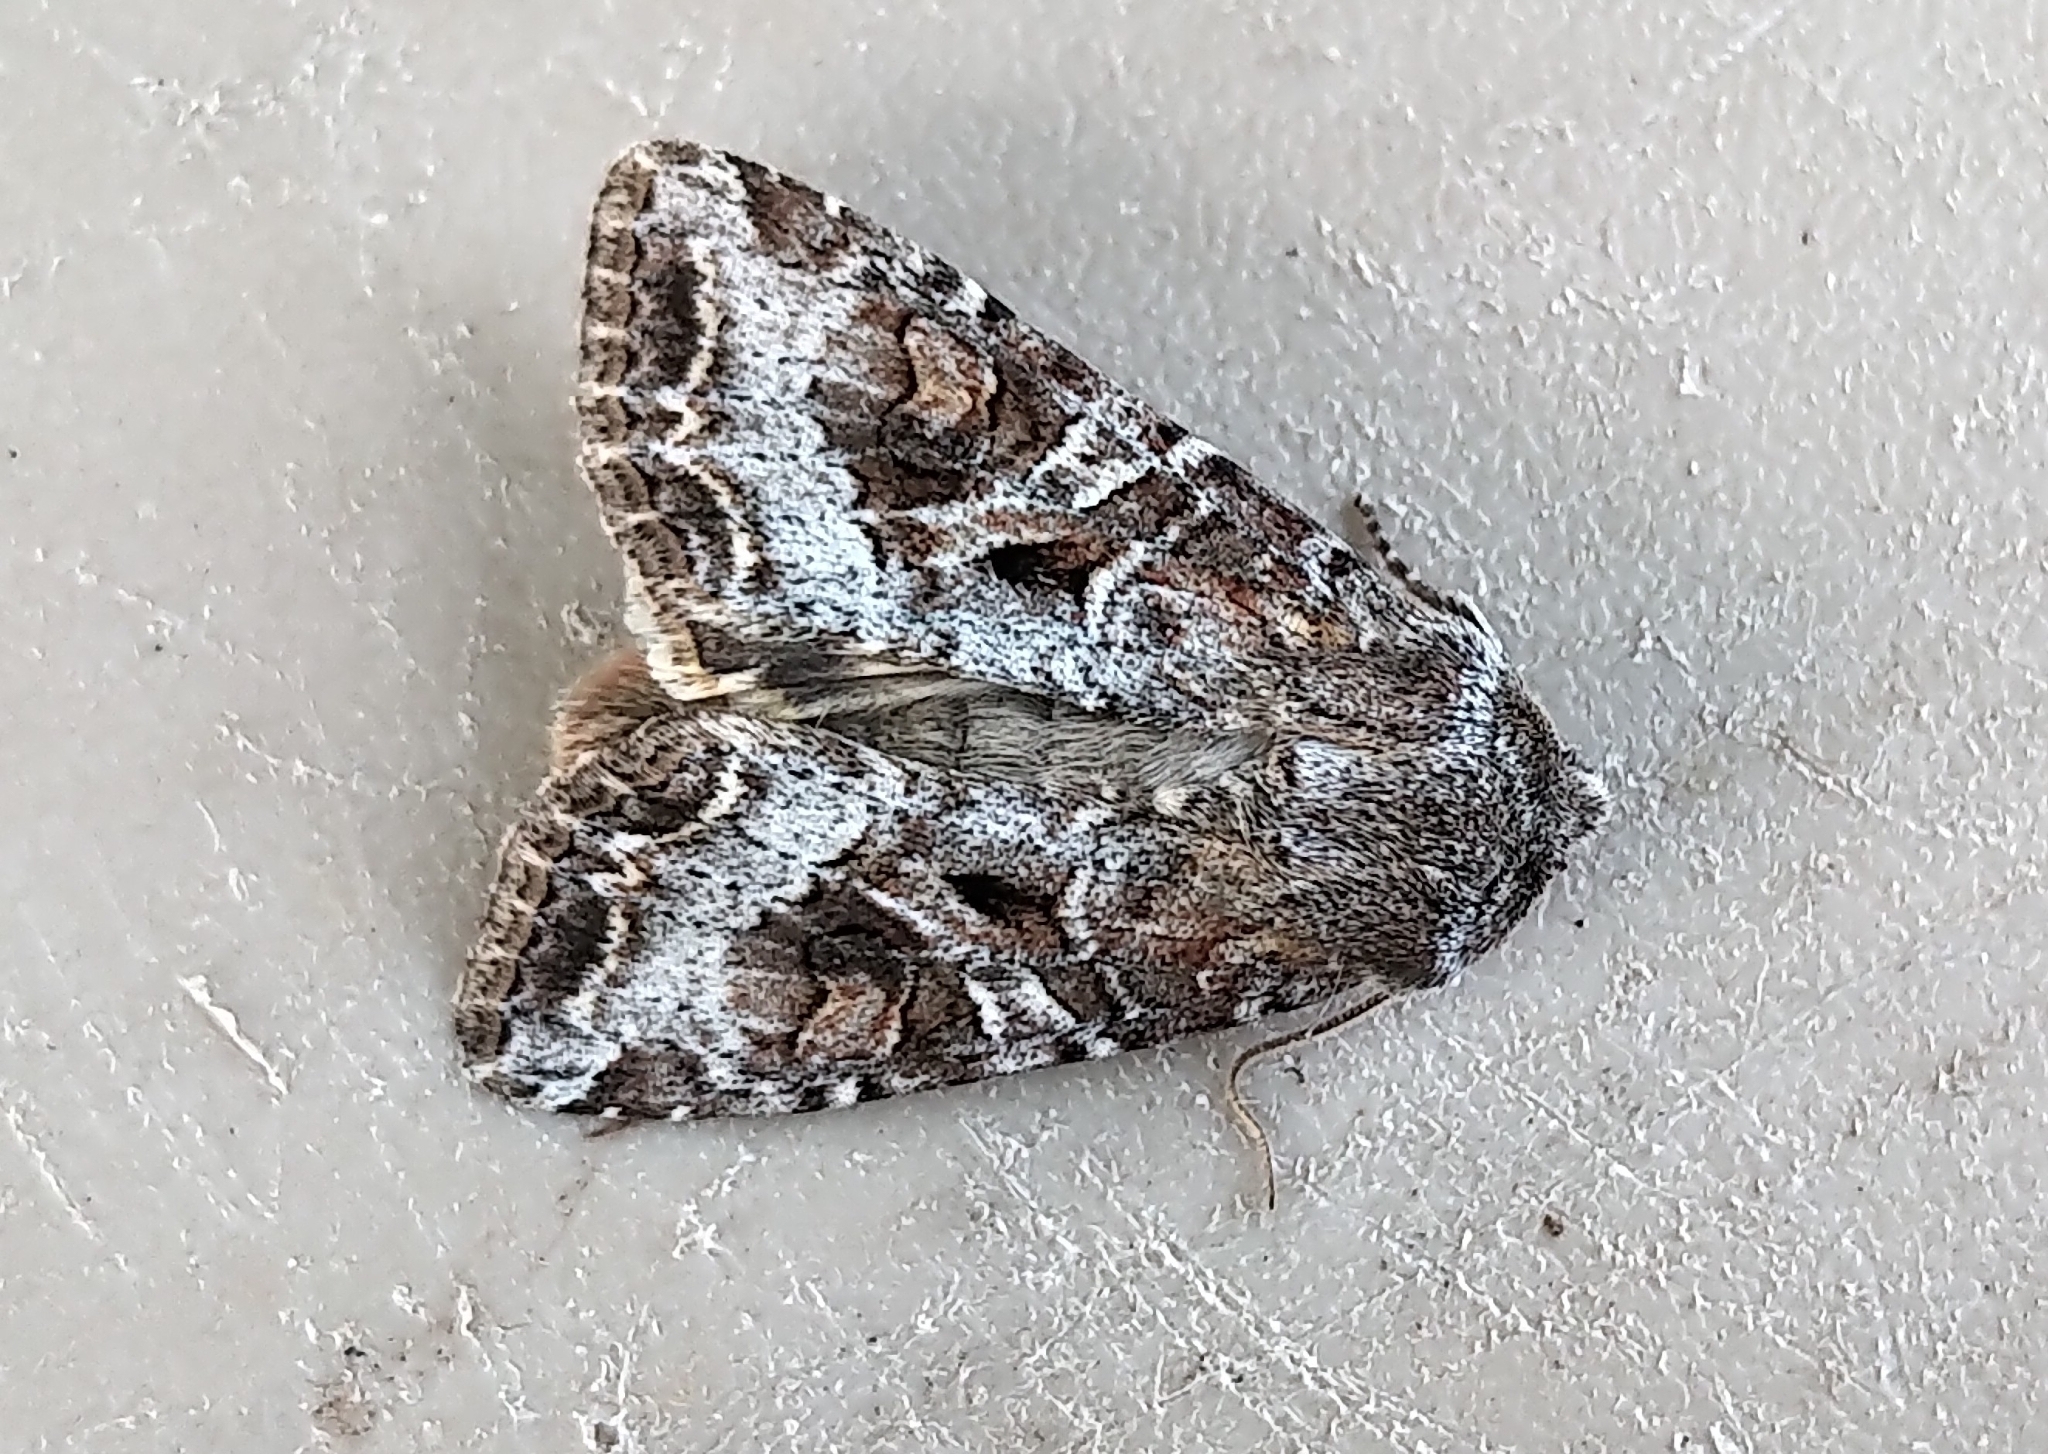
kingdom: Animalia
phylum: Arthropoda
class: Insecta
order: Lepidoptera
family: Noctuidae
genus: Trichordestra
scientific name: Trichordestra liquida
